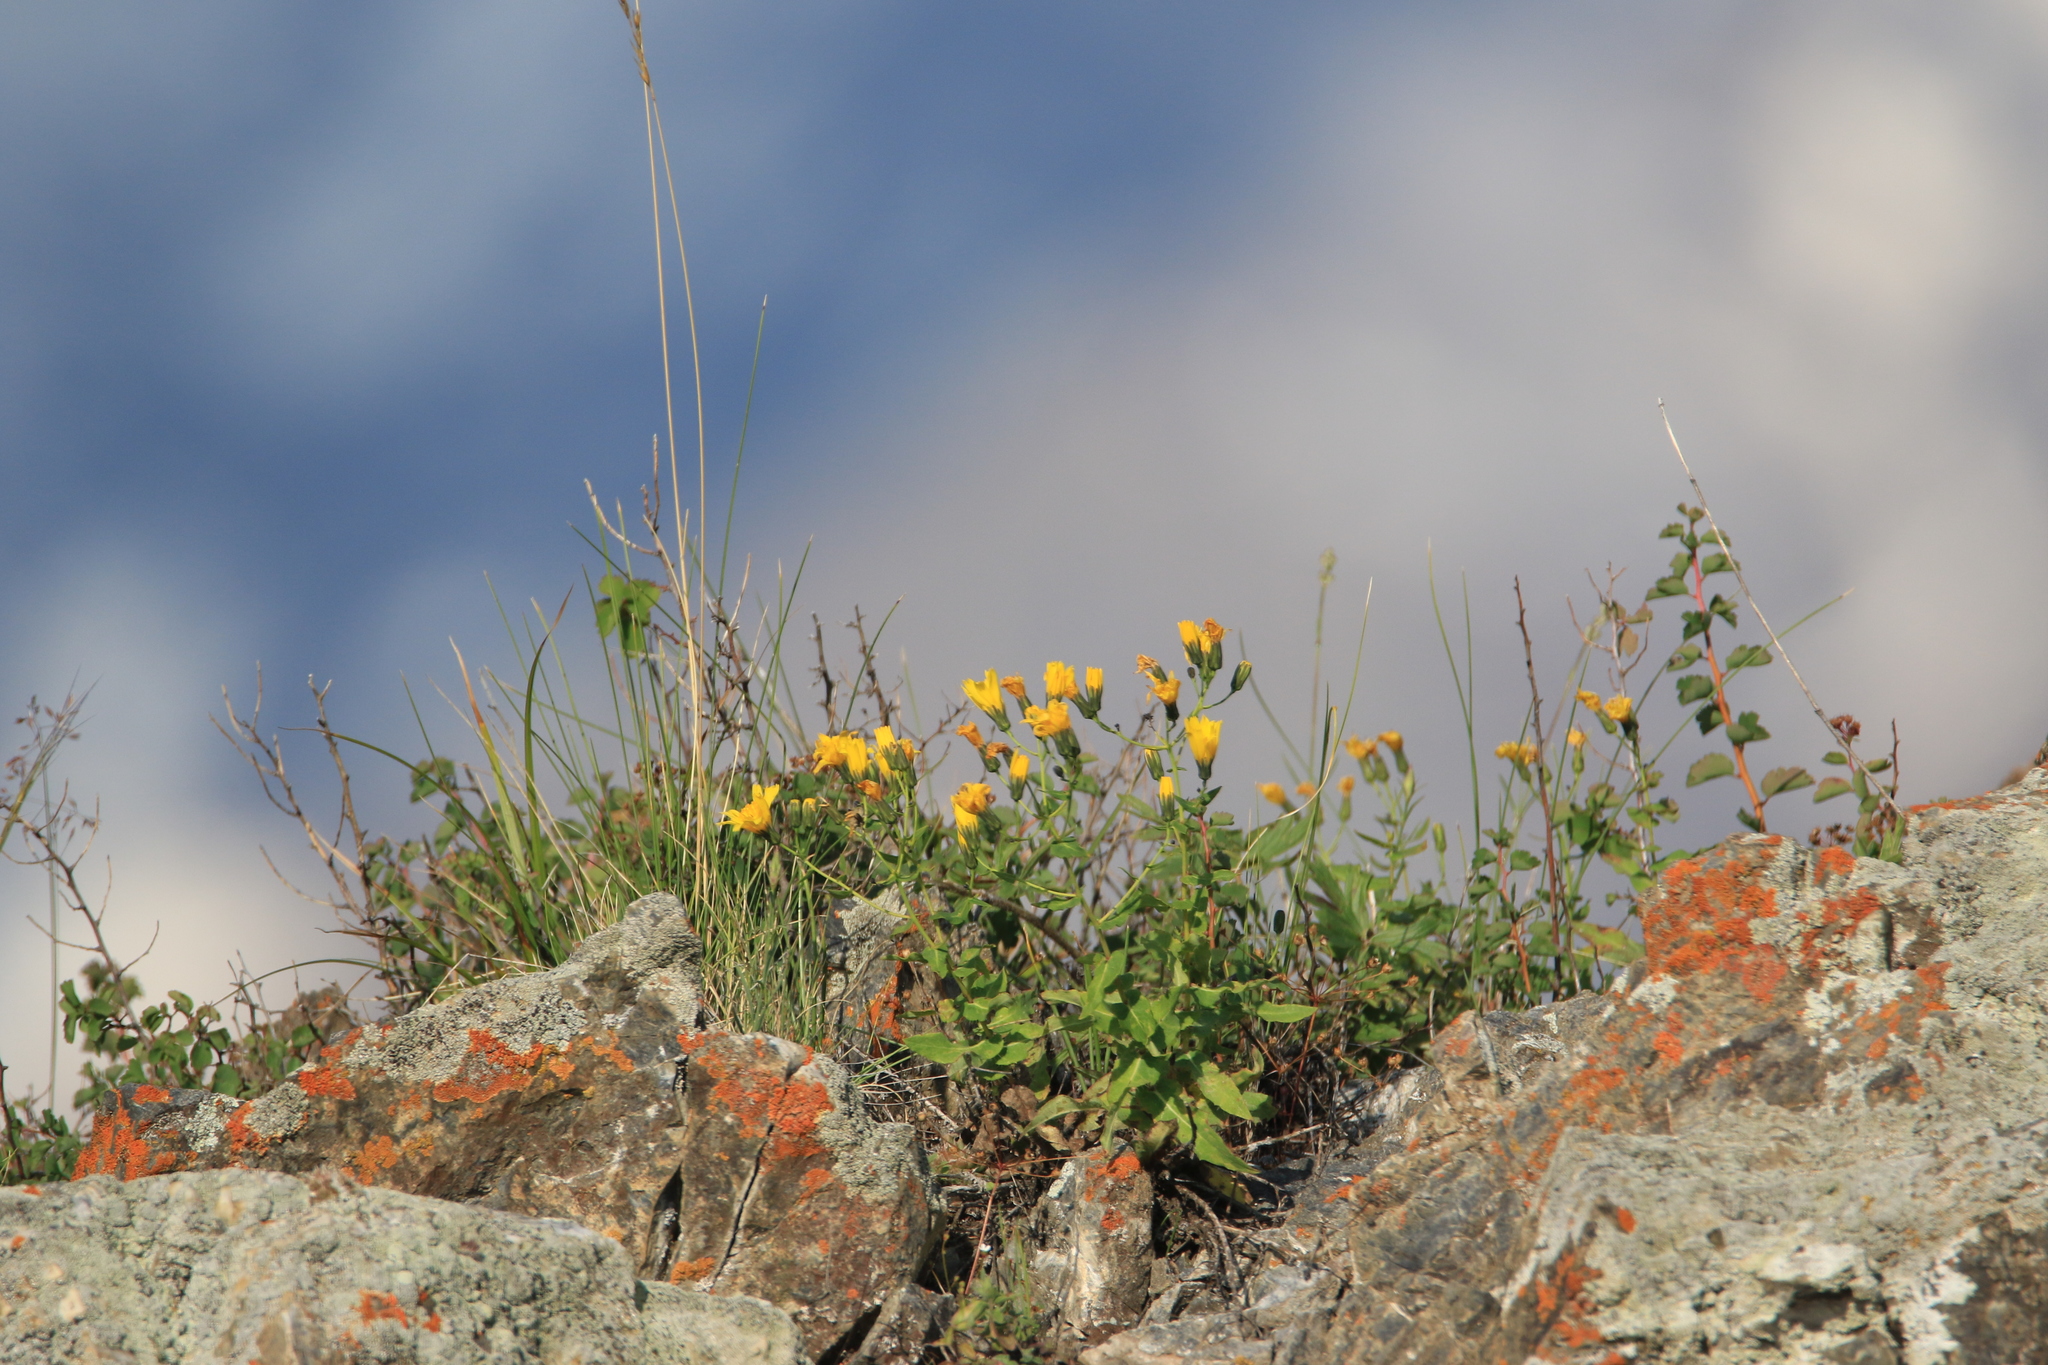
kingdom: Plantae
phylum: Tracheophyta
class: Magnoliopsida
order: Asterales
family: Asteraceae
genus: Hieracium
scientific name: Hieracium umbellatum
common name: Northern hawkweed
